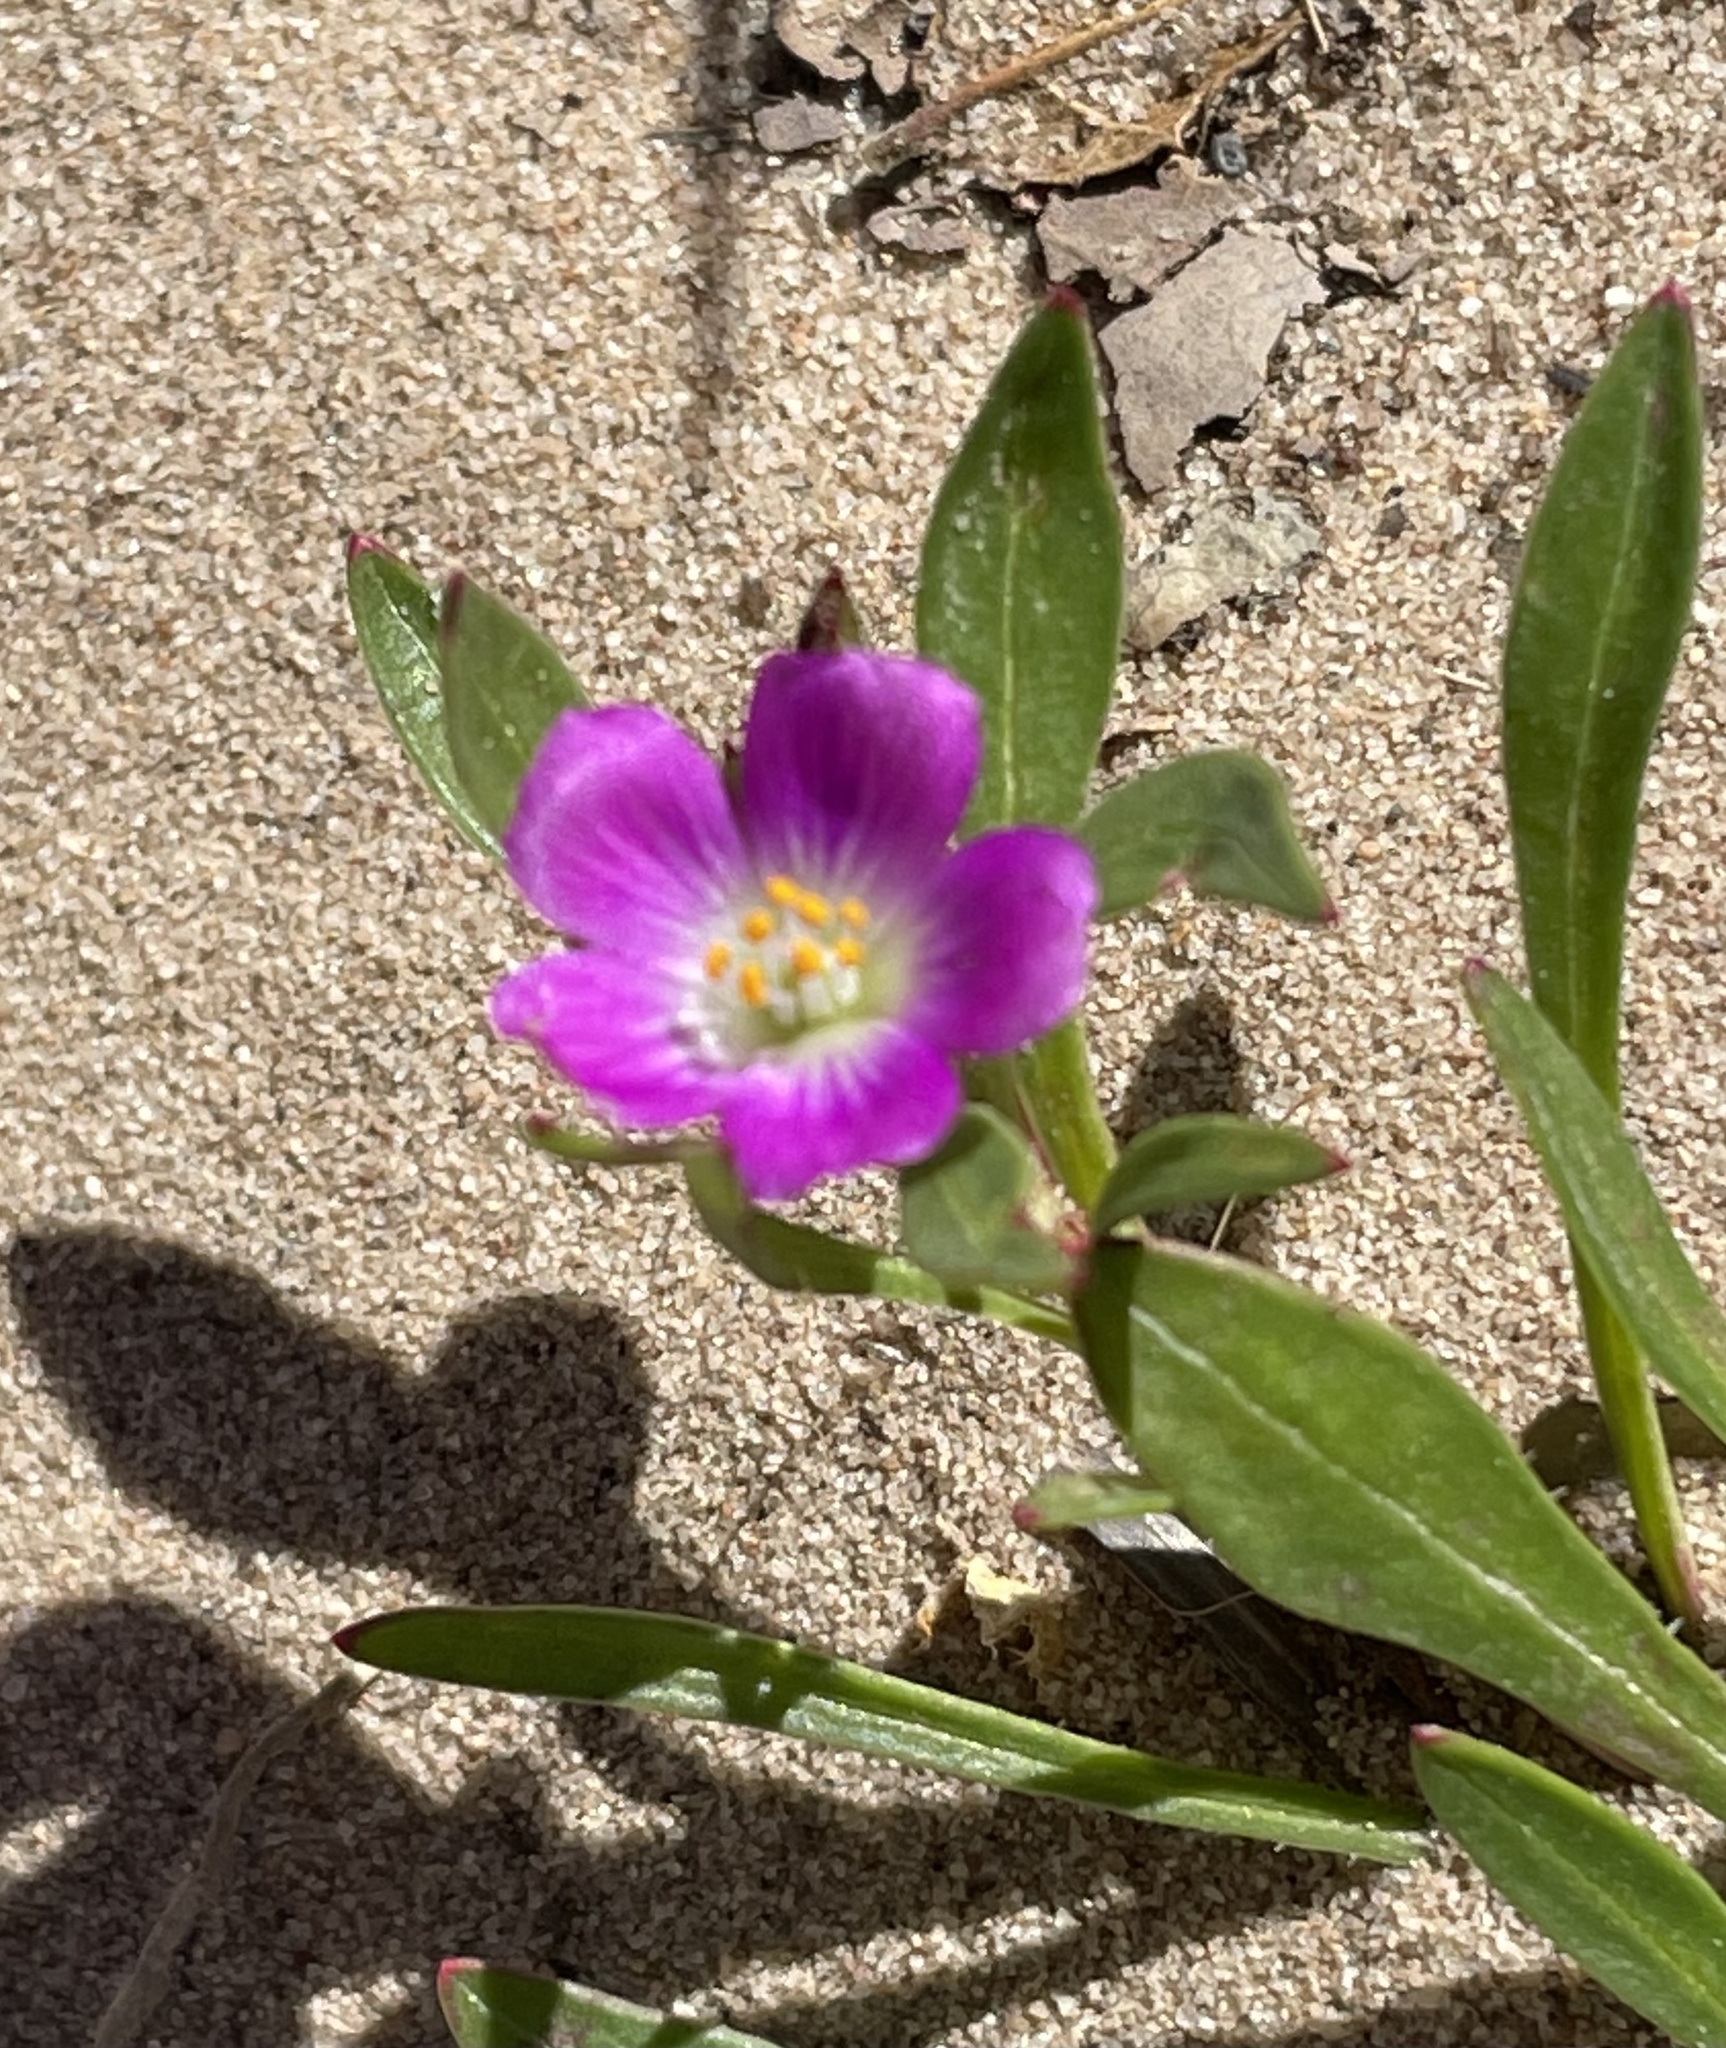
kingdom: Plantae
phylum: Tracheophyta
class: Magnoliopsida
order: Caryophyllales
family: Montiaceae
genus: Calandrinia
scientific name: Calandrinia menziesii
